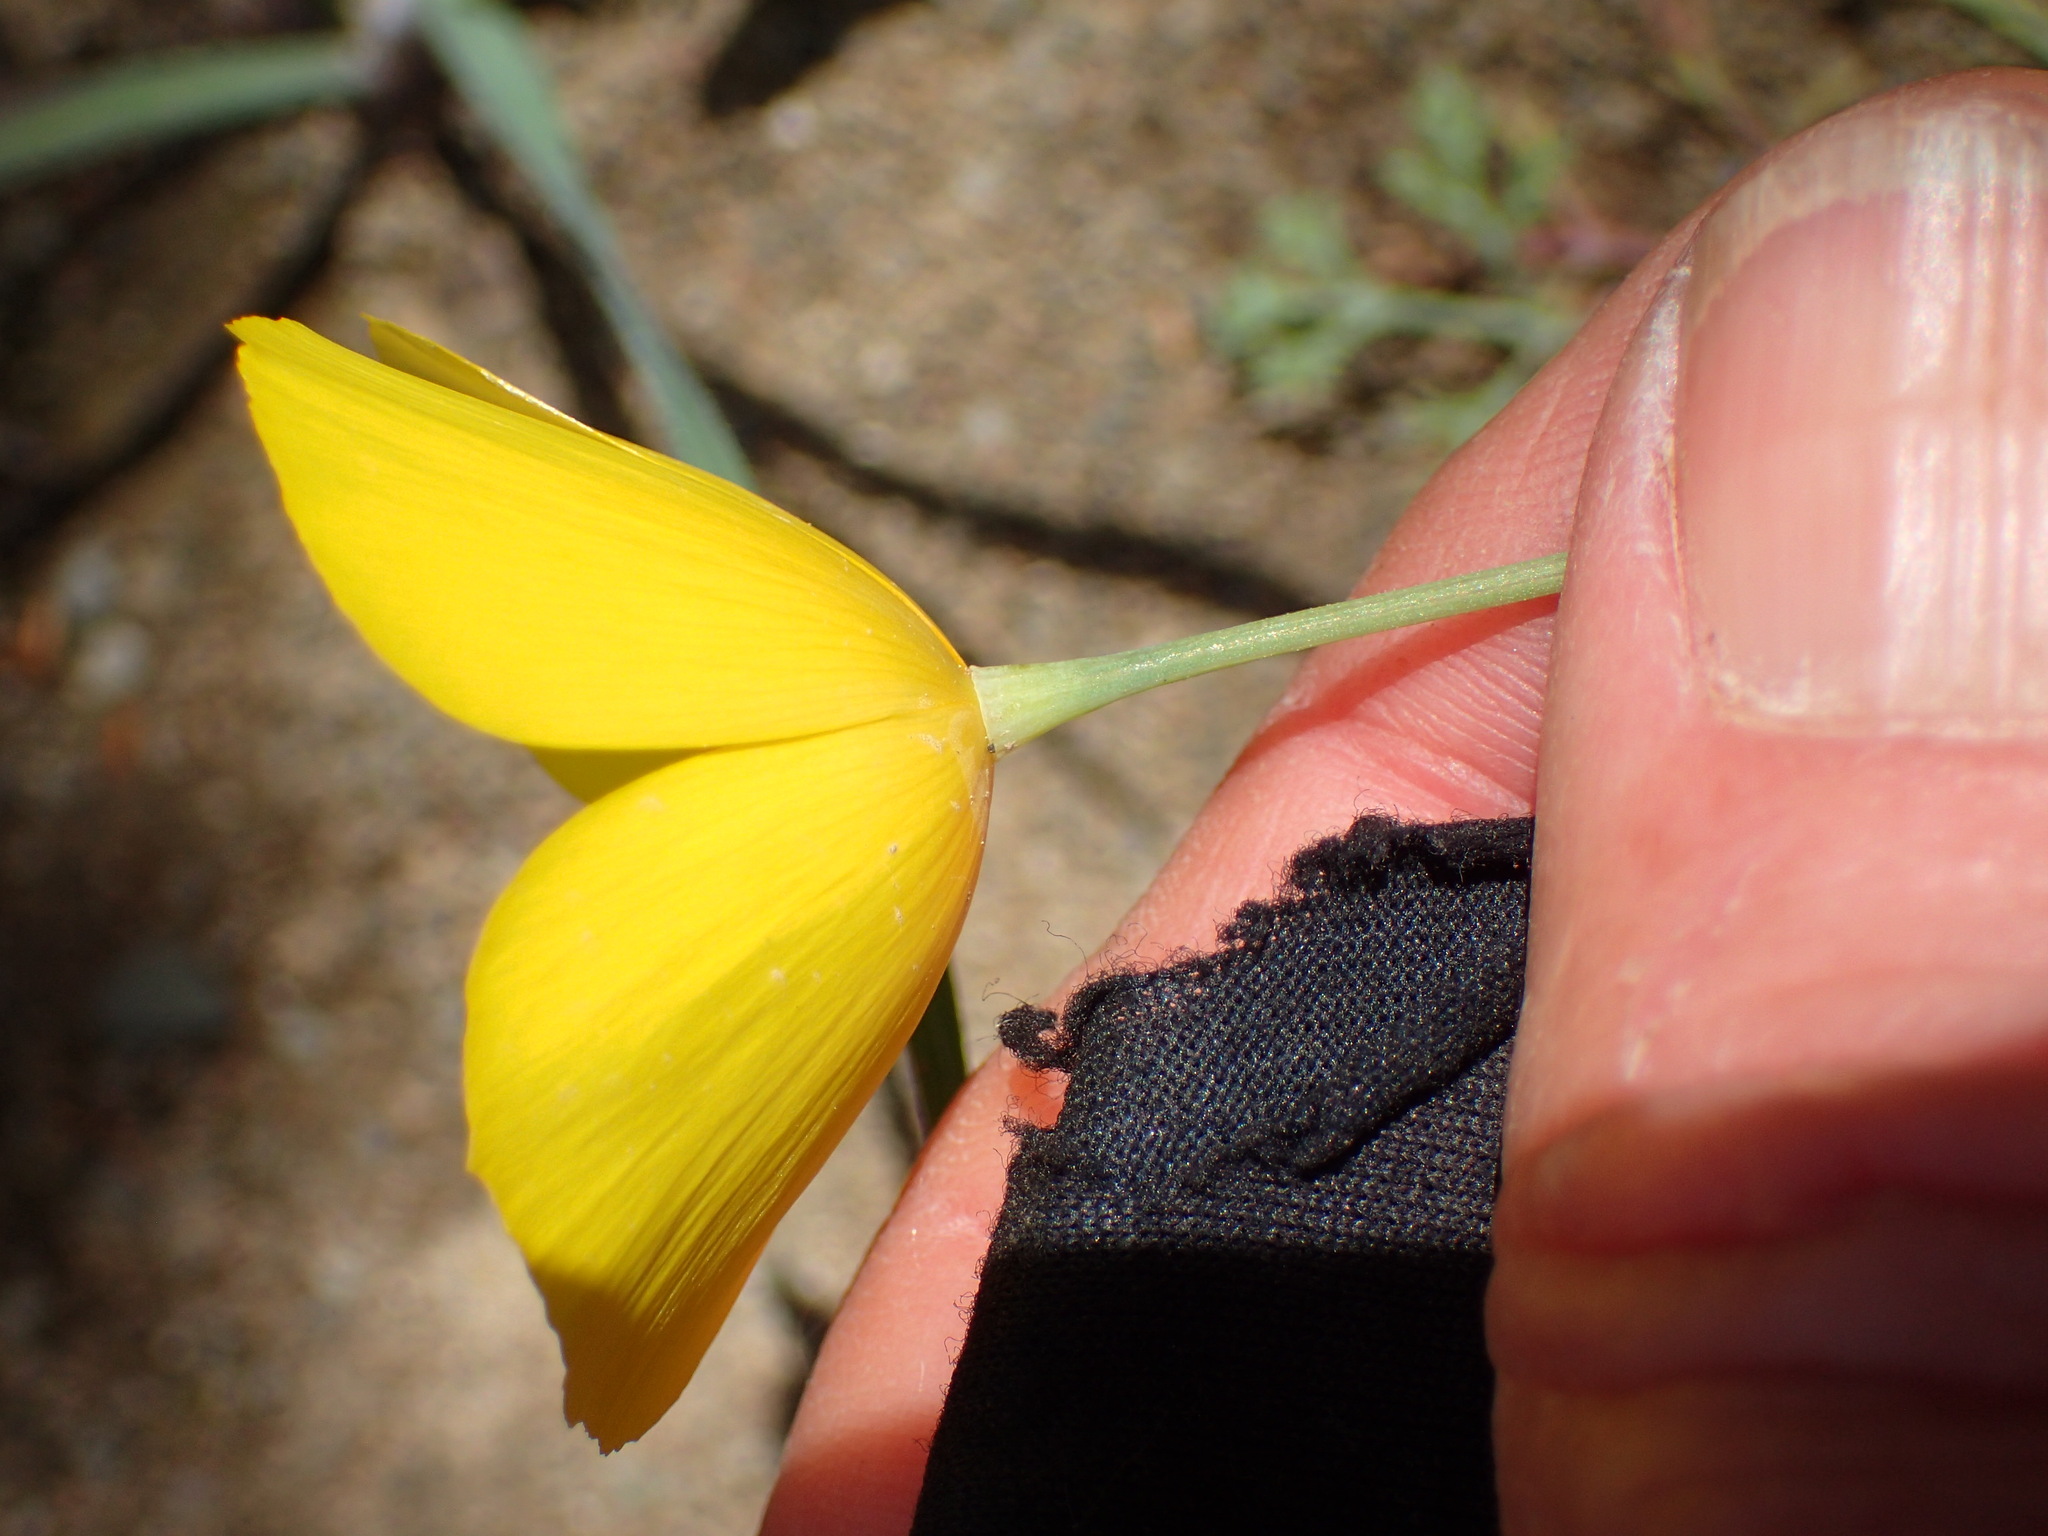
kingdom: Plantae
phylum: Tracheophyta
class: Magnoliopsida
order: Ranunculales
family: Papaveraceae
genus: Eschscholzia
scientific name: Eschscholzia caespitosa
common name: Tufted california-poppy
